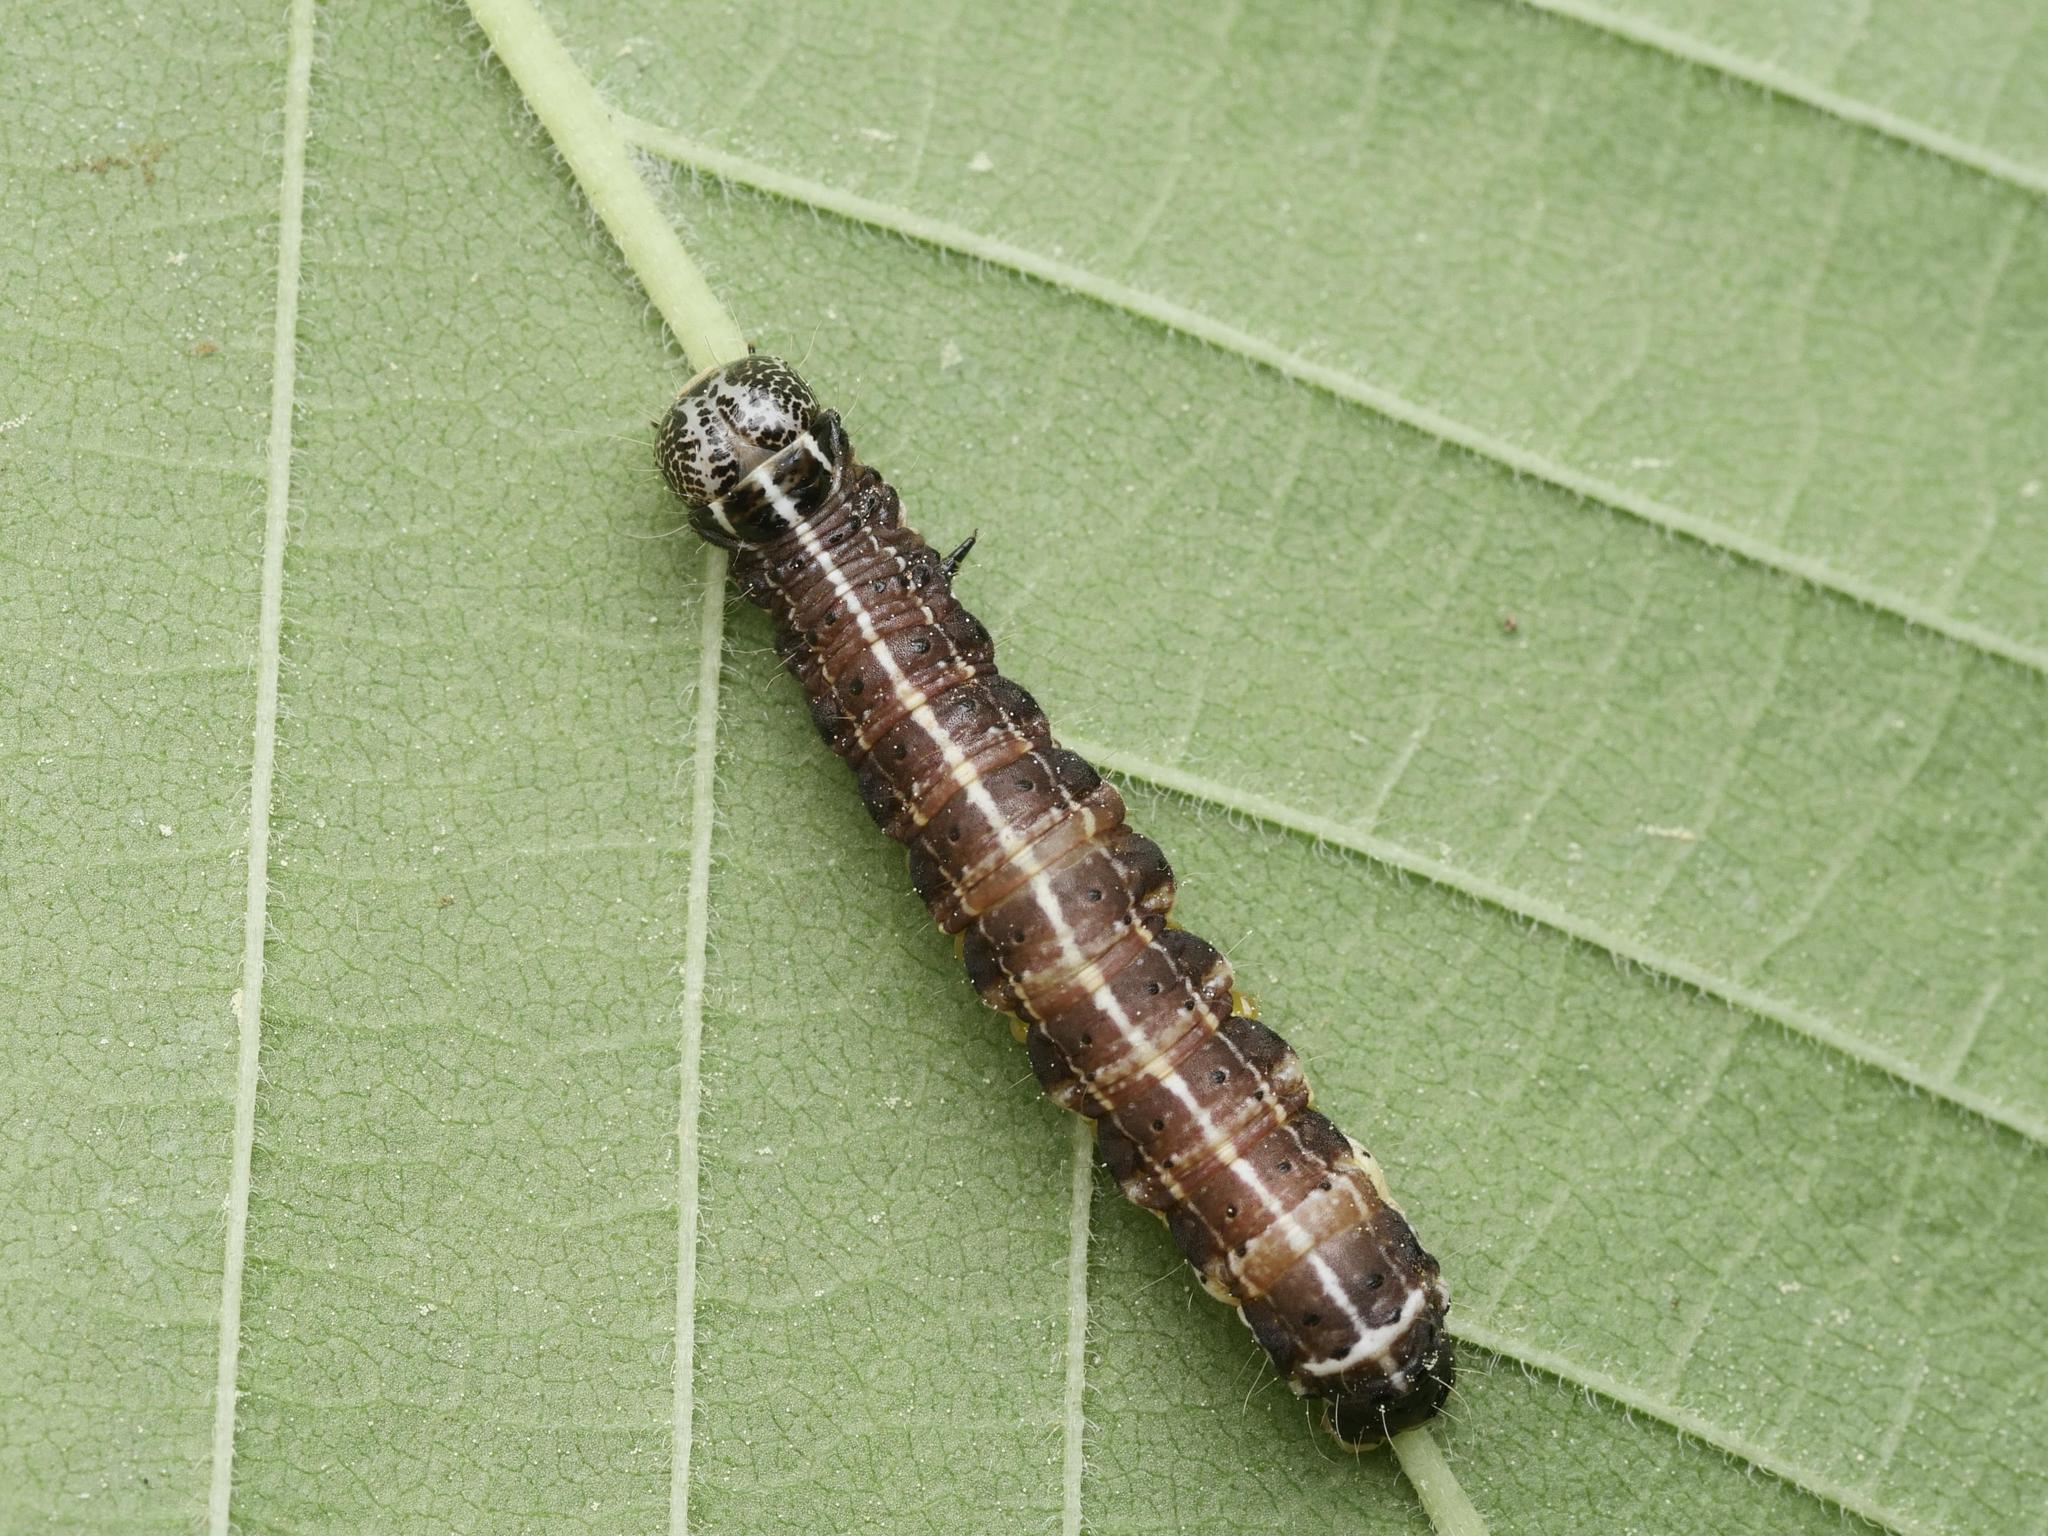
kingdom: Animalia
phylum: Arthropoda
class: Insecta
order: Lepidoptera
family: Noctuidae
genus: Orthosia
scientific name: Orthosia cruda
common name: Small quaker
